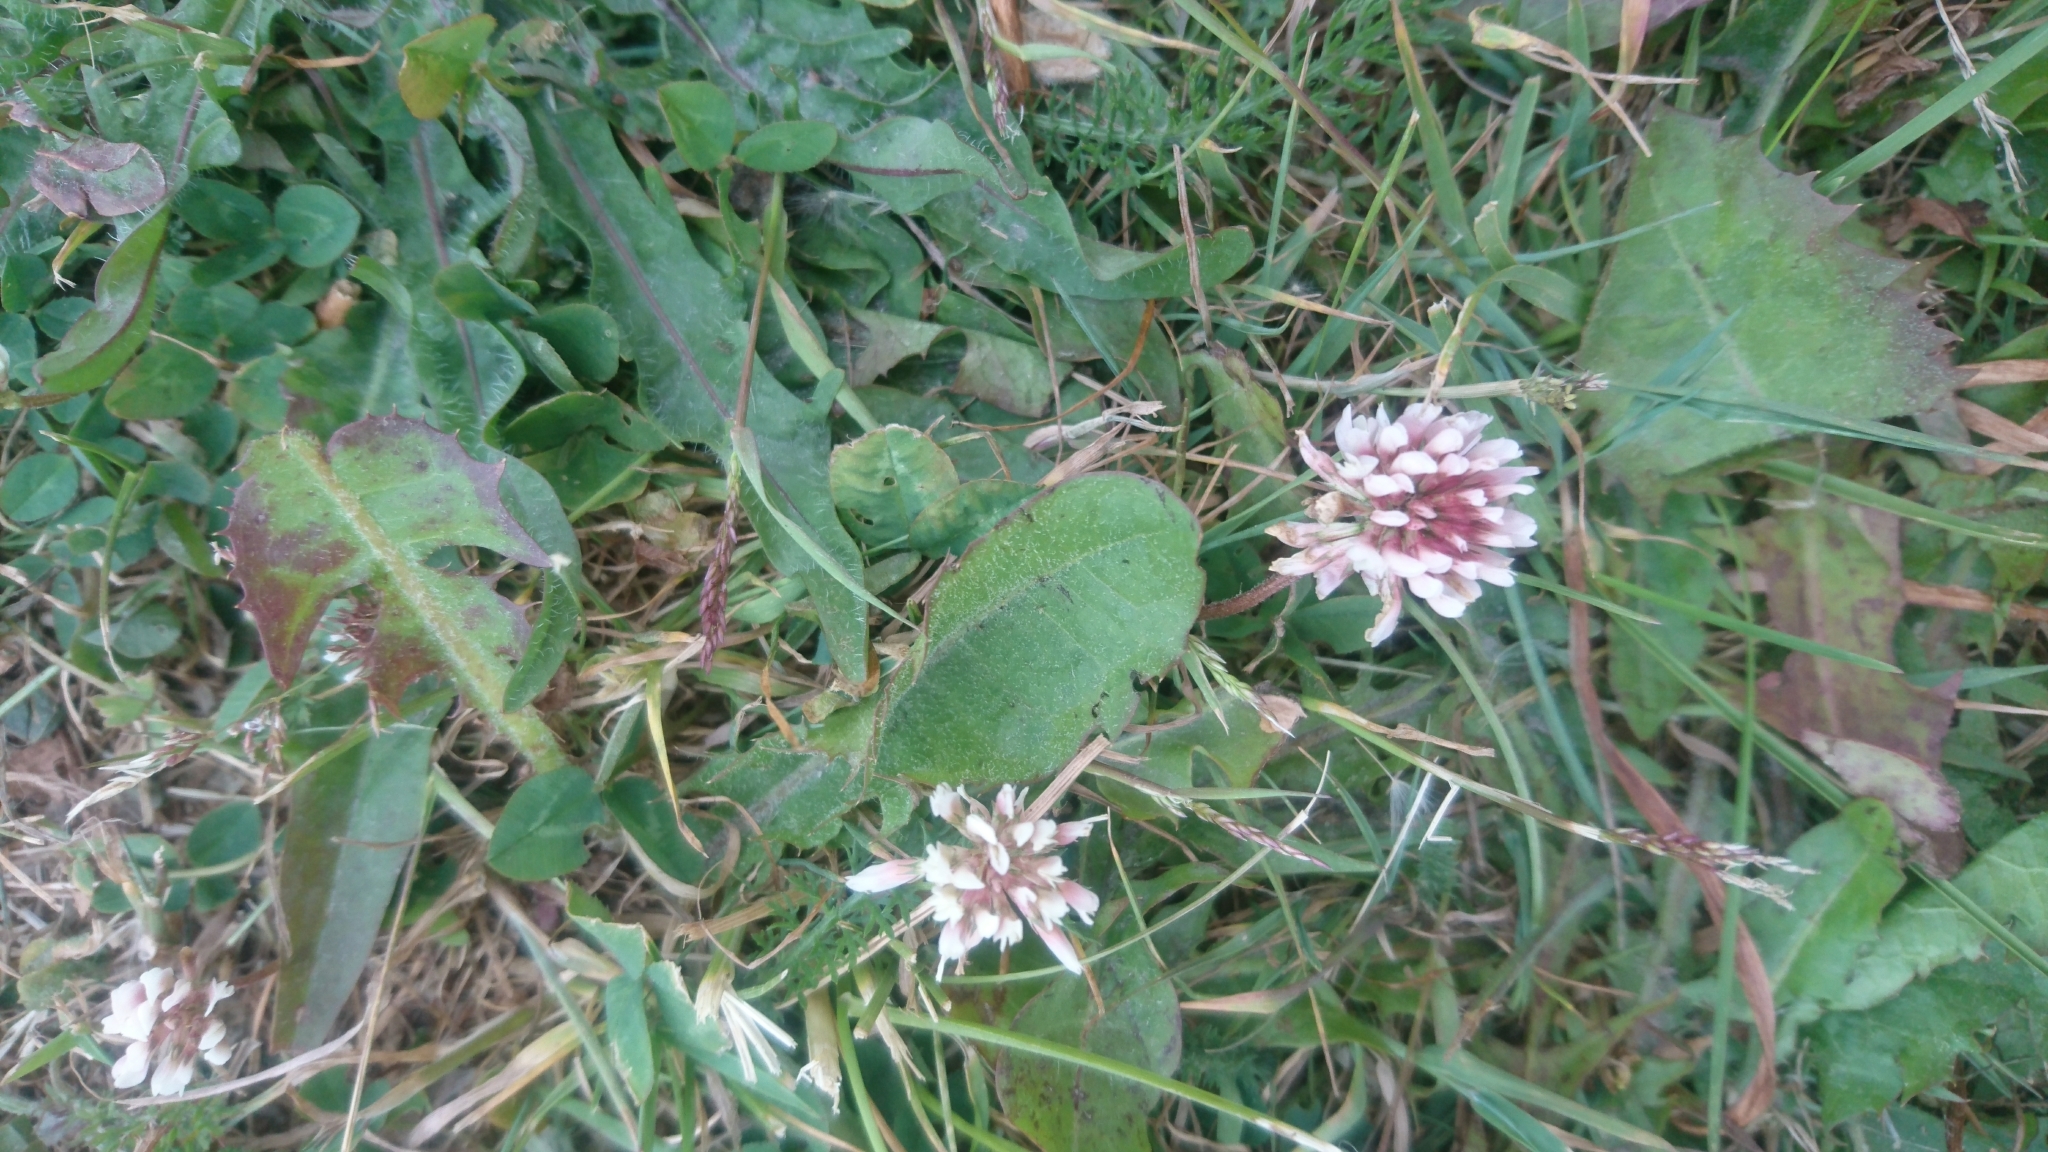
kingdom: Plantae
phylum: Tracheophyta
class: Magnoliopsida
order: Fabales
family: Fabaceae
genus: Trifolium
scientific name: Trifolium repens
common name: White clover
